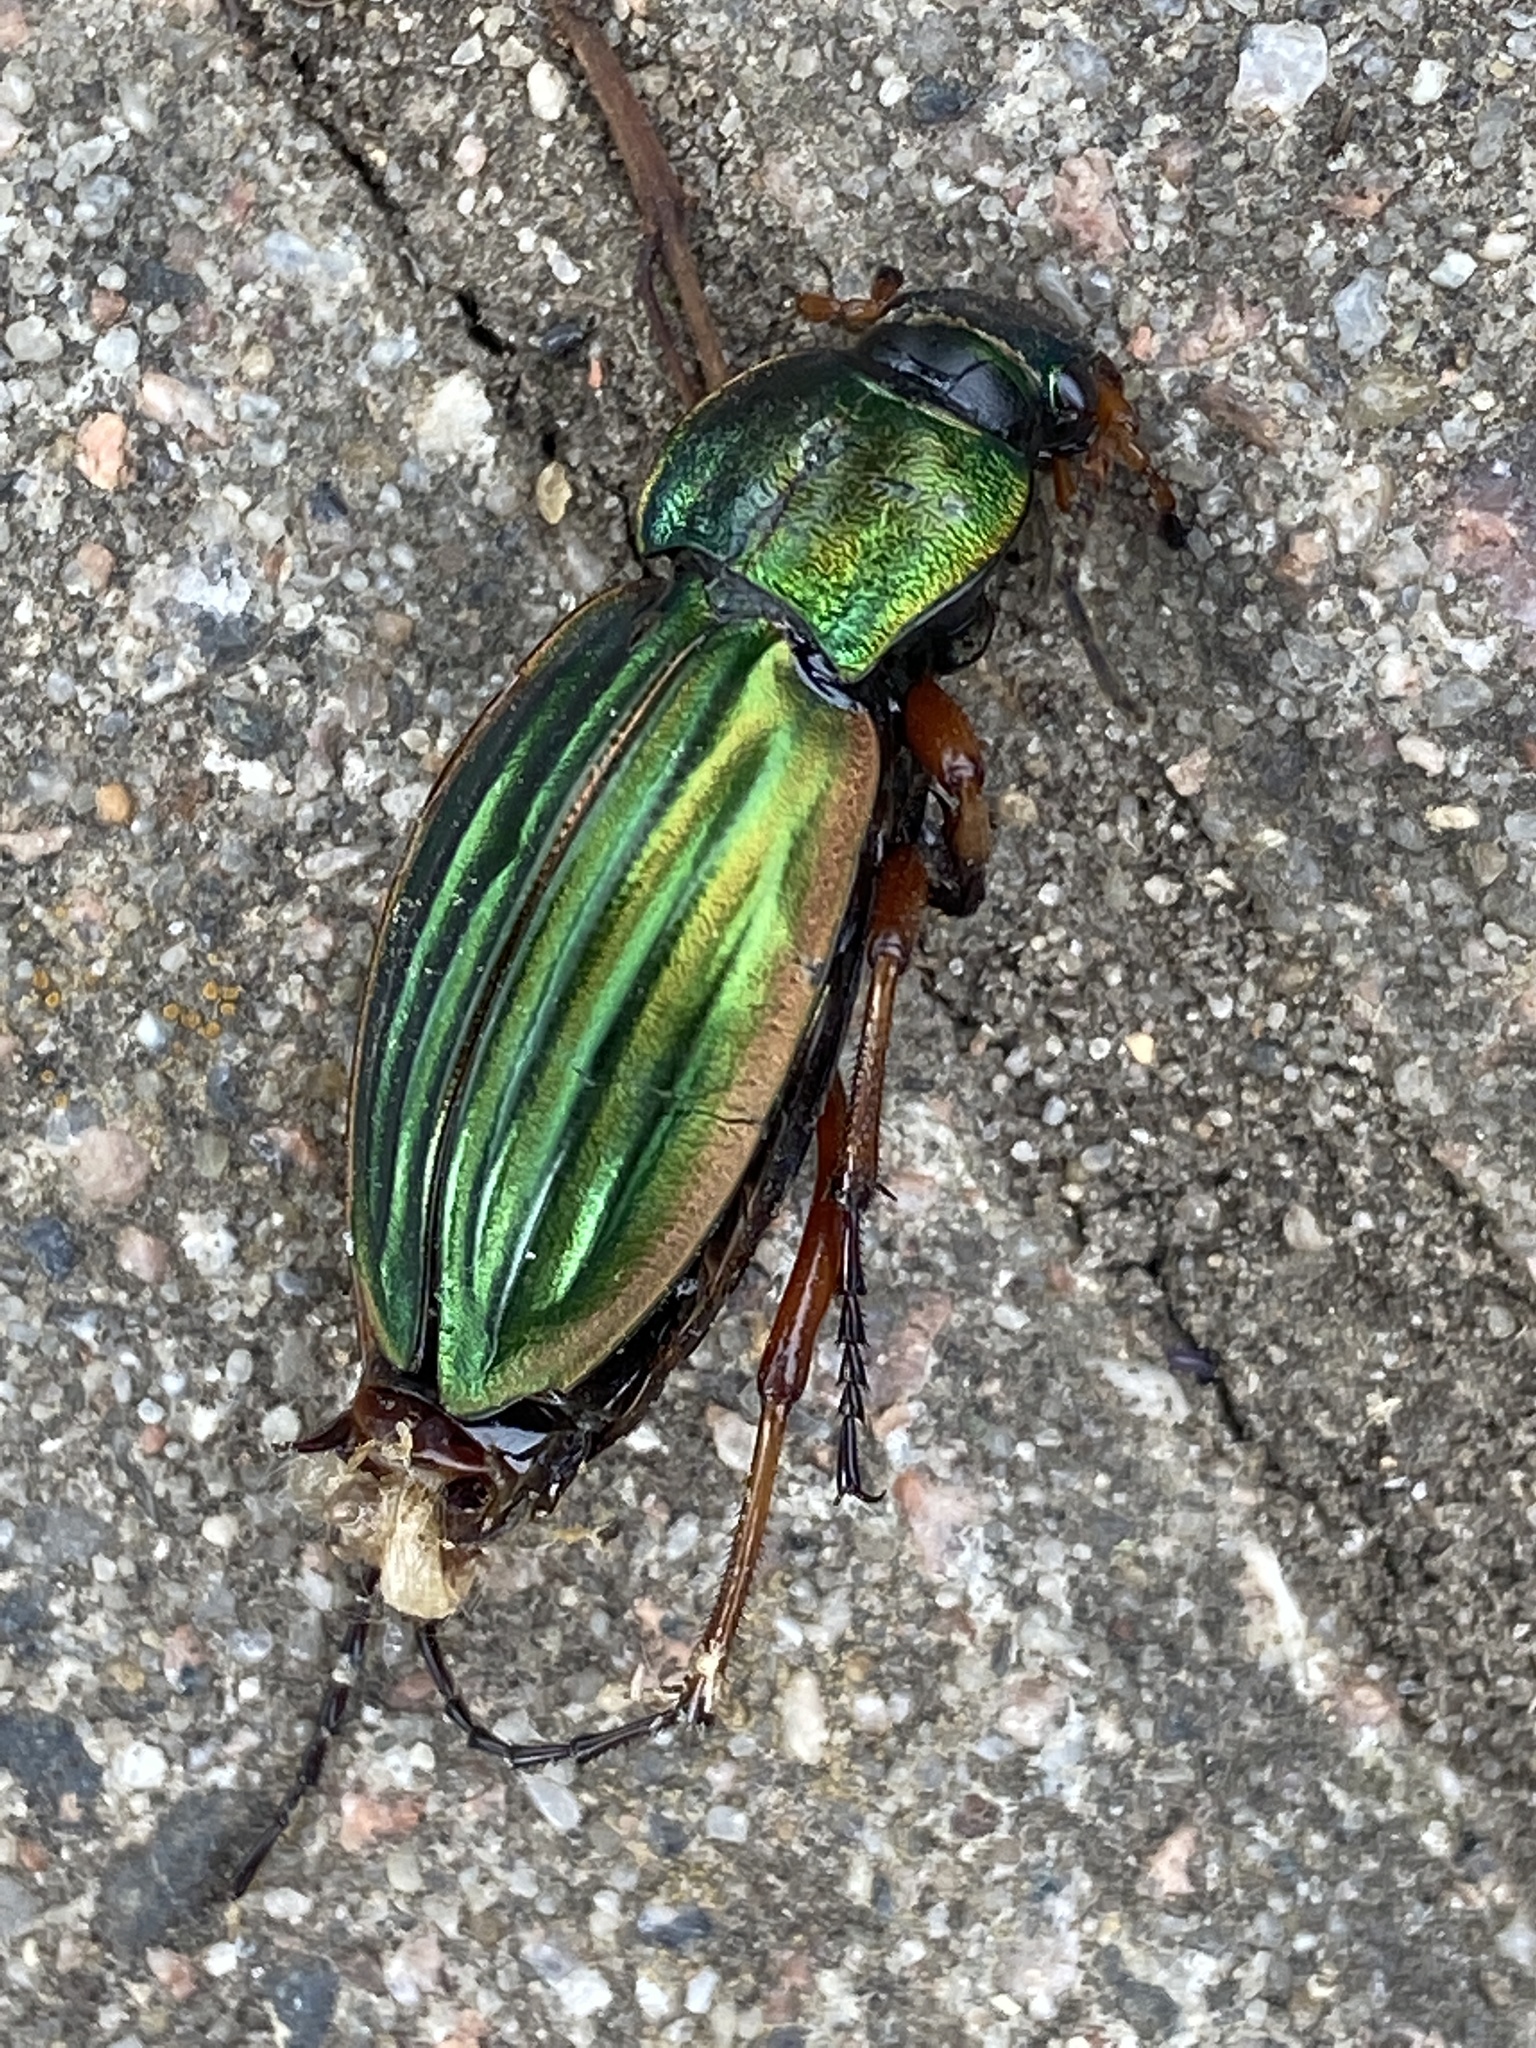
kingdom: Animalia
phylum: Arthropoda
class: Insecta
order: Coleoptera
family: Carabidae
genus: Carabus
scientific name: Carabus auratus
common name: Golden ground beetle
